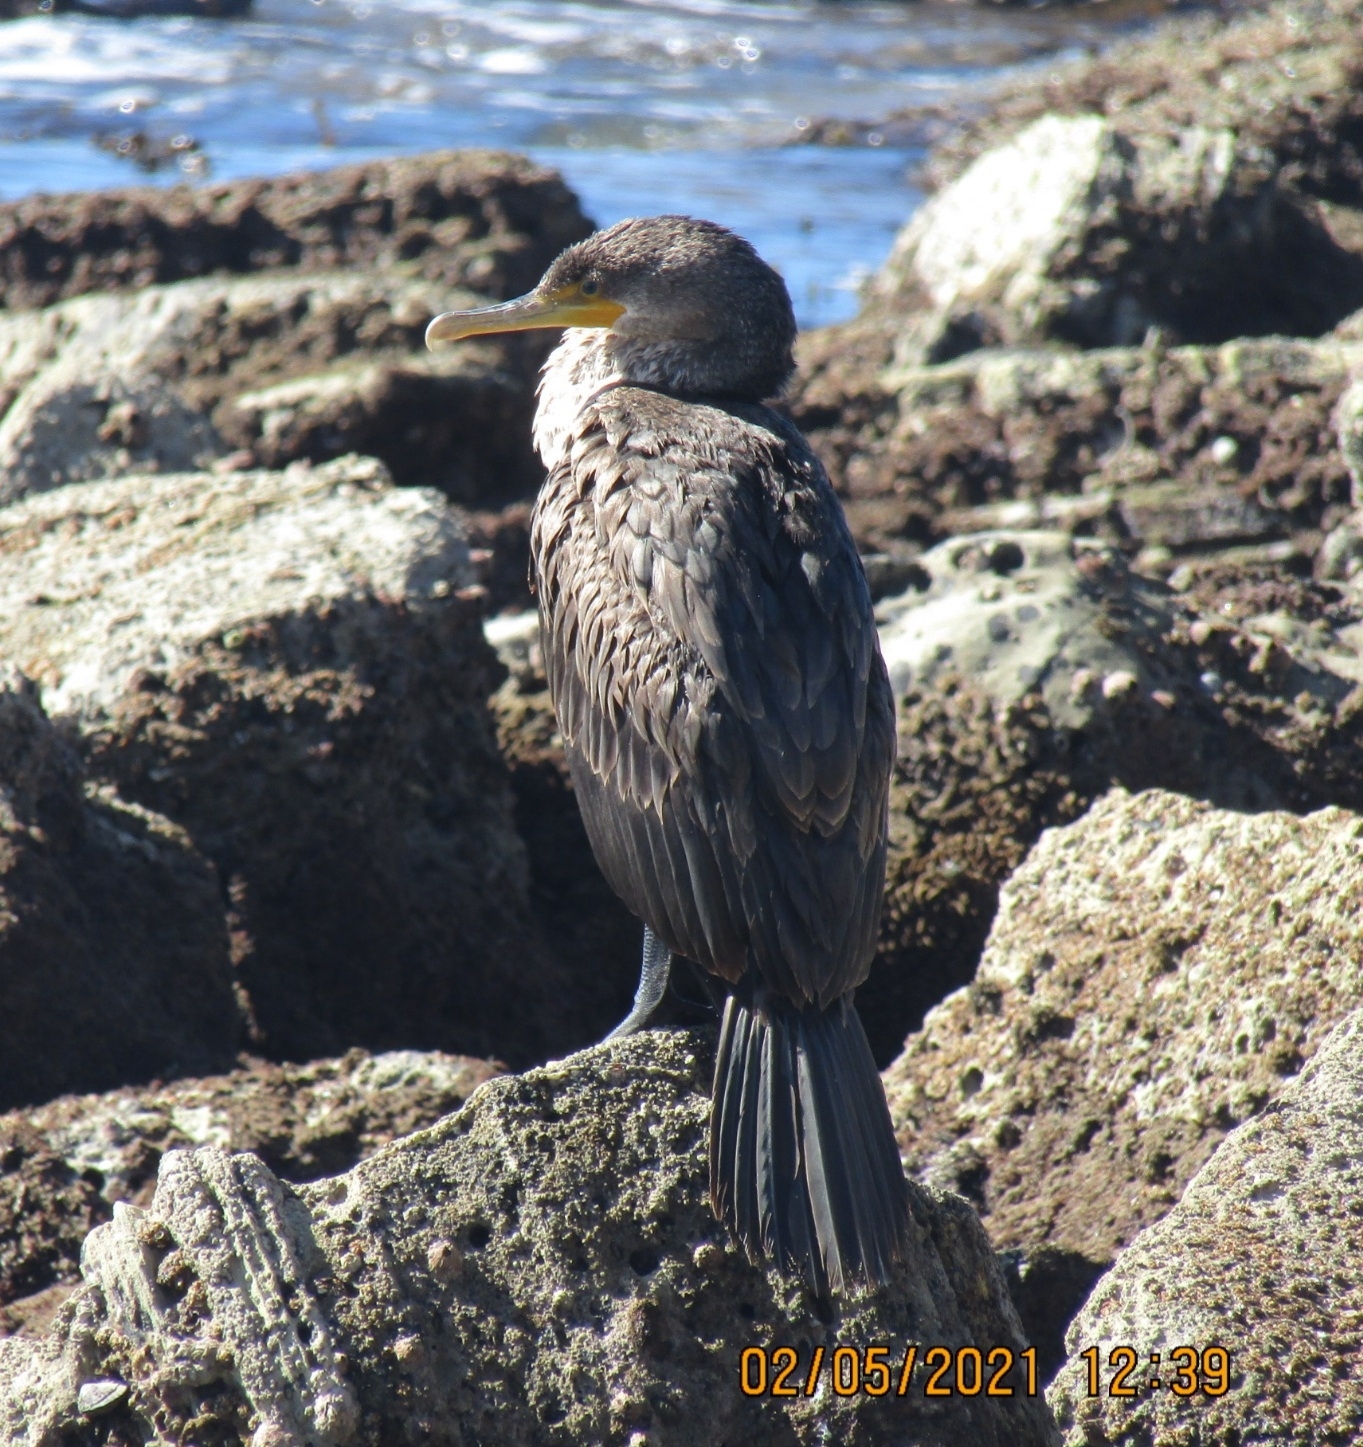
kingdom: Animalia
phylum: Chordata
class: Aves
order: Suliformes
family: Phalacrocoracidae
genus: Phalacrocorax
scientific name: Phalacrocorax auritus
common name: Double-crested cormorant
